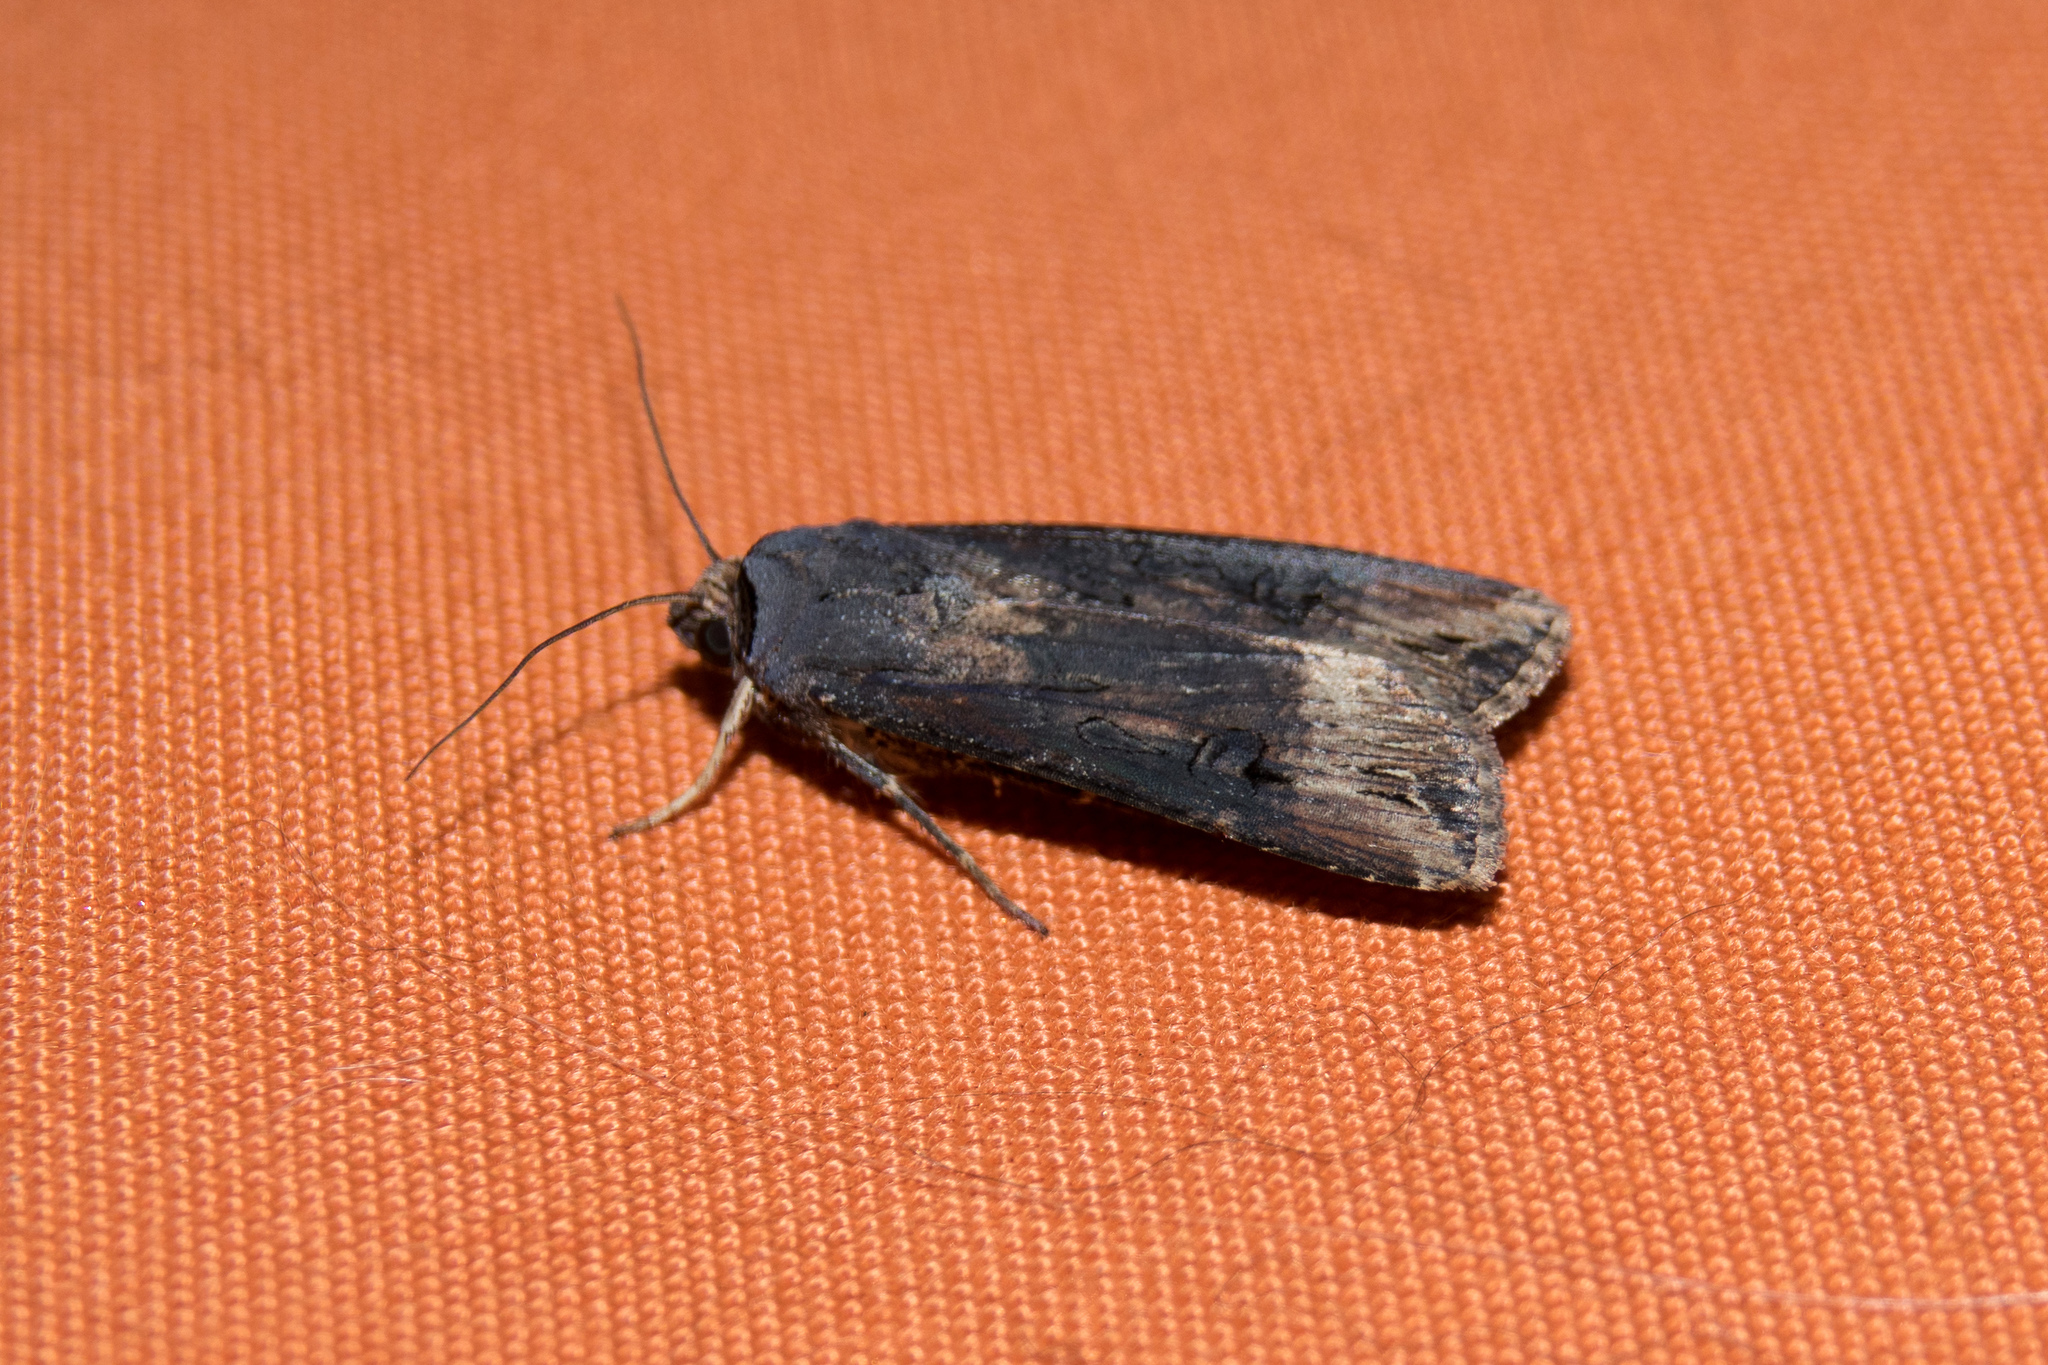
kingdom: Animalia
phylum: Arthropoda
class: Insecta
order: Lepidoptera
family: Noctuidae
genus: Agrotis
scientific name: Agrotis ipsilon
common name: Dark sword-grass
